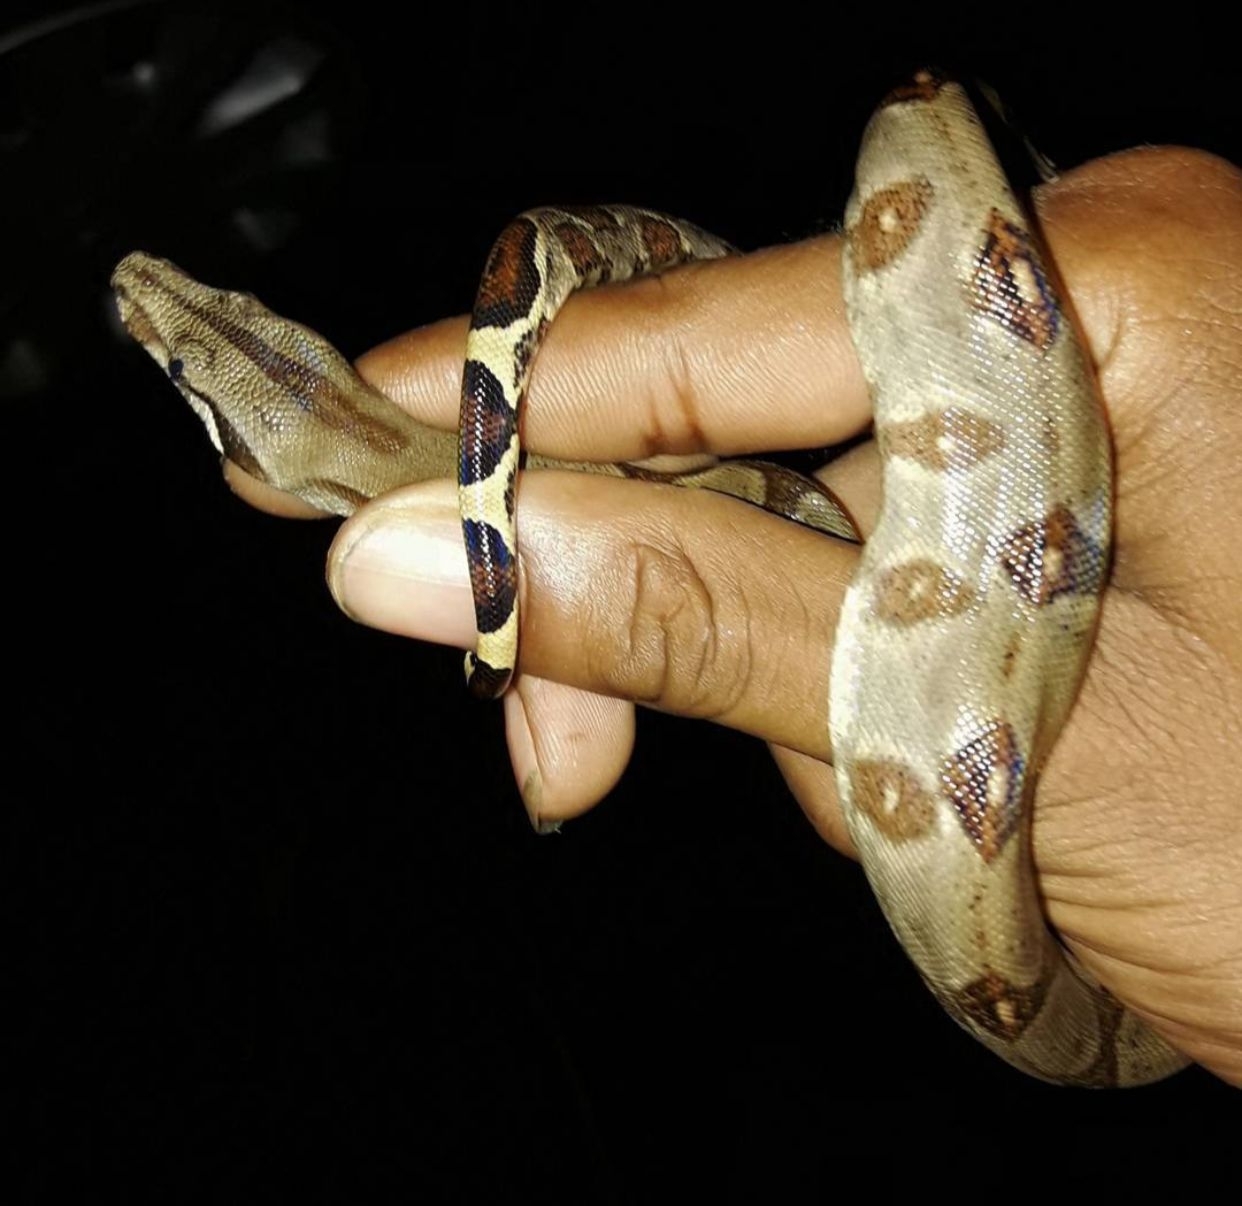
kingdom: Animalia
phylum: Chordata
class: Squamata
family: Boidae
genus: Boa
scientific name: Boa imperator
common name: Central american boa
